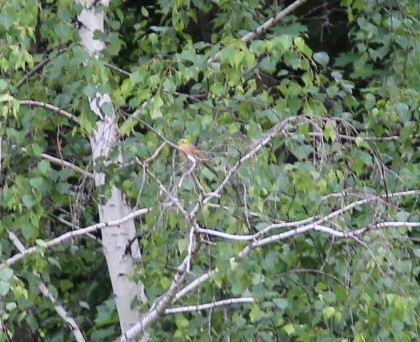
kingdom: Animalia
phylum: Chordata
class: Aves
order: Passeriformes
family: Emberizidae
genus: Emberiza
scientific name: Emberiza citrinella
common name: Yellowhammer
